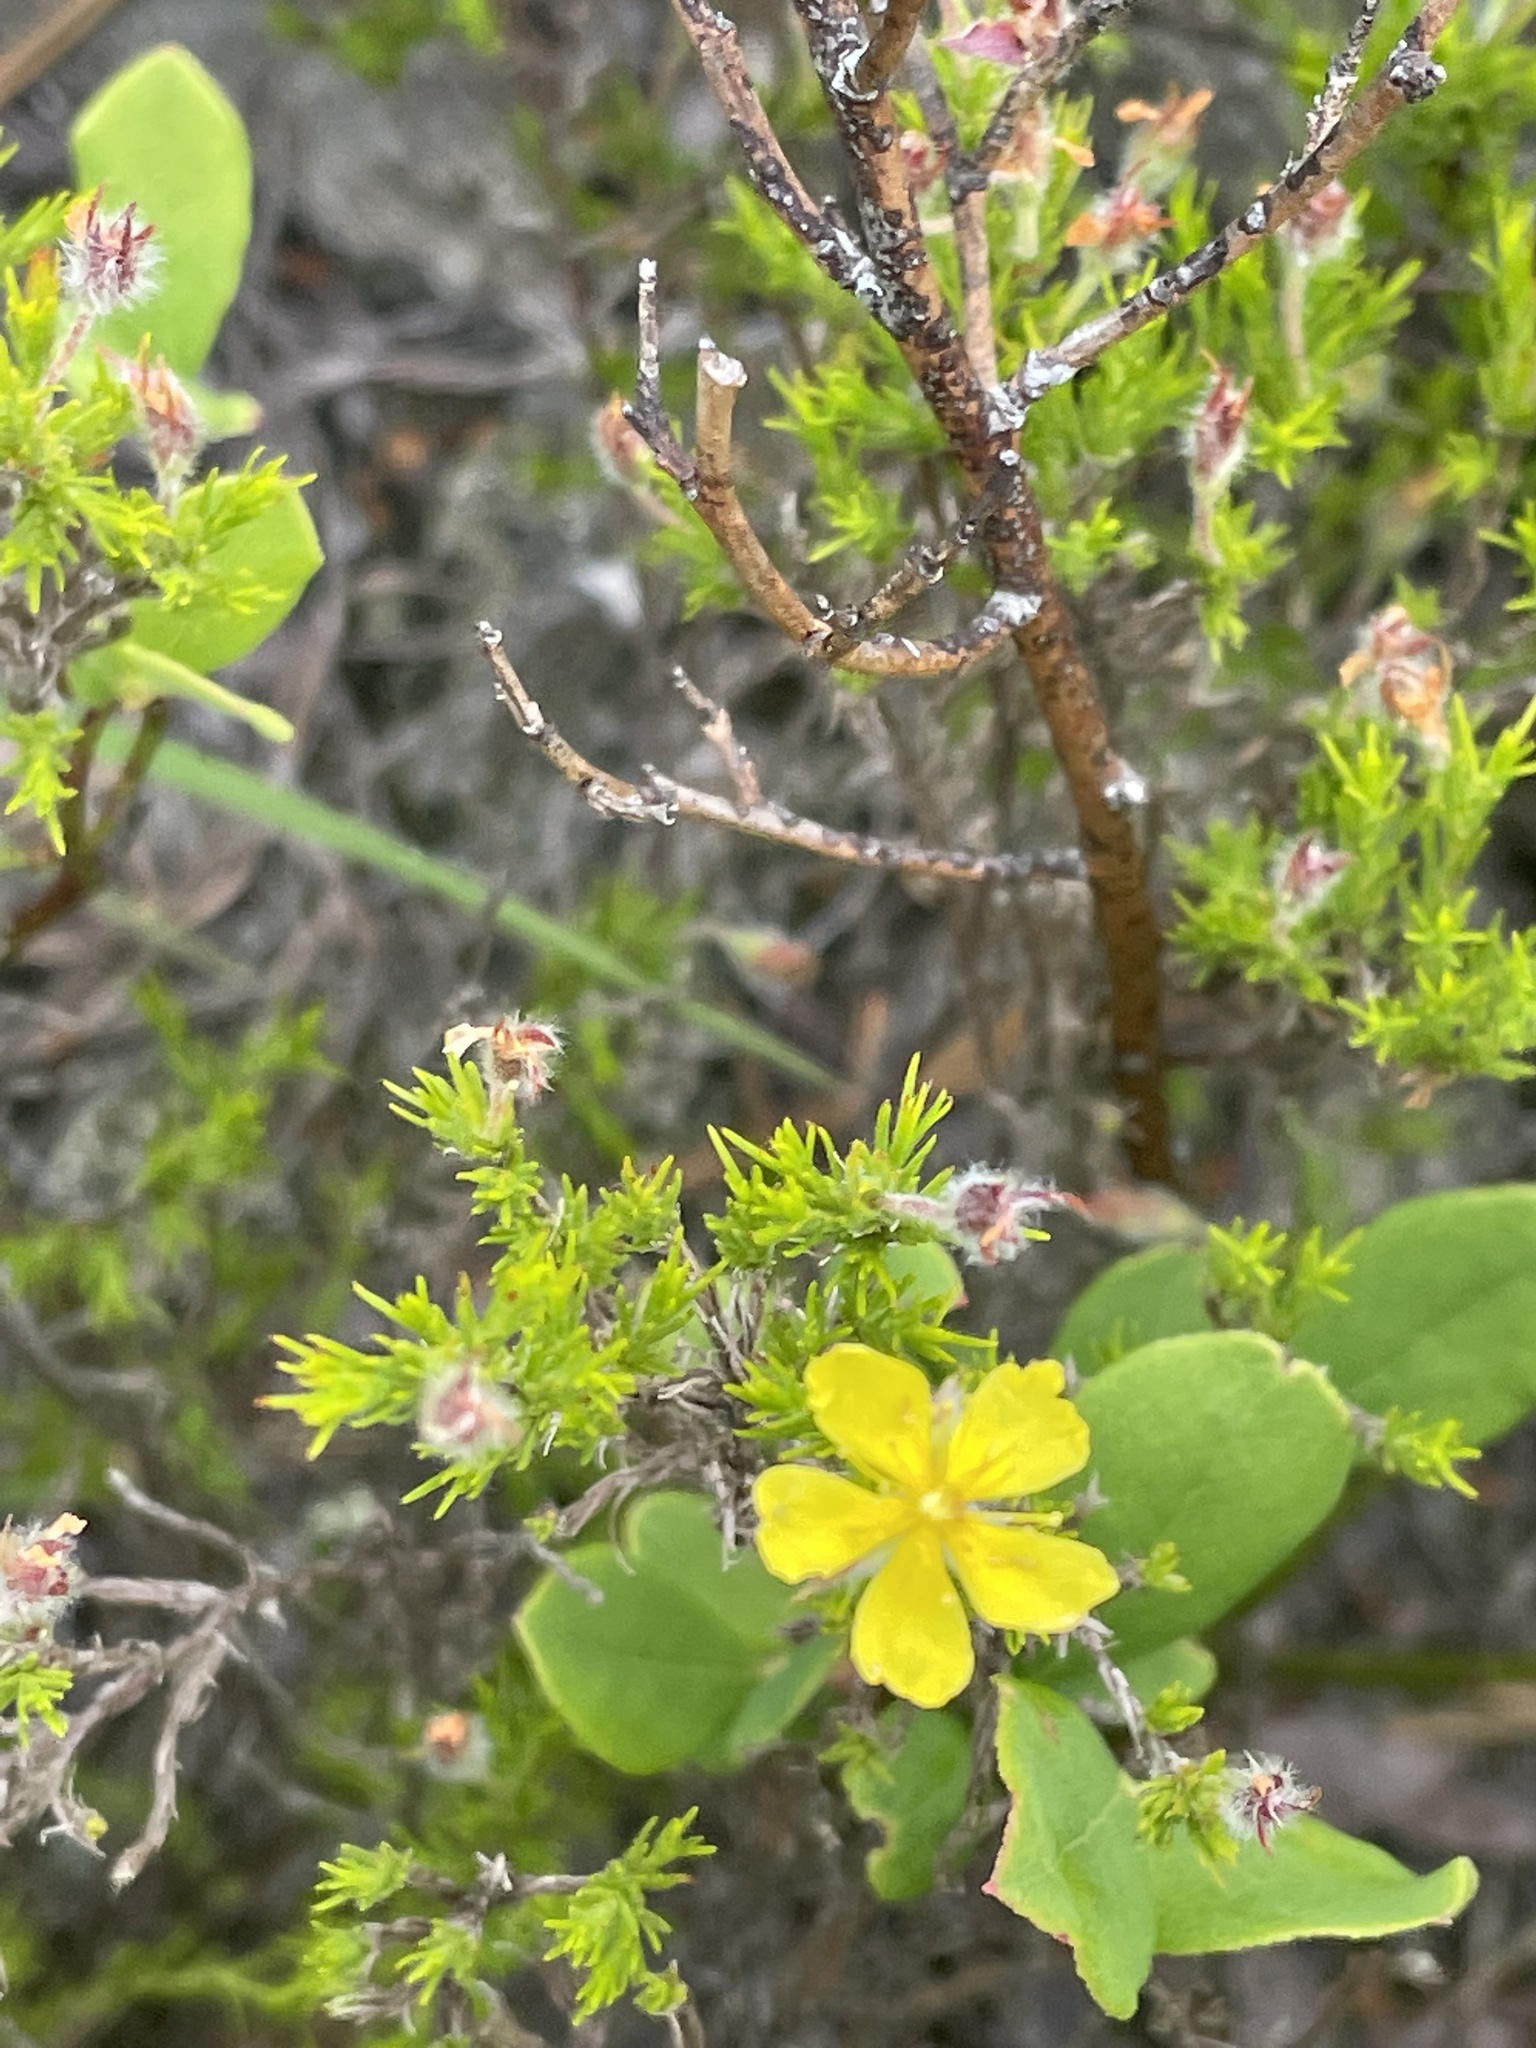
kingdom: Plantae
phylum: Tracheophyta
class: Magnoliopsida
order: Malvales
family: Cistaceae
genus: Hudsonia
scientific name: Hudsonia montana
